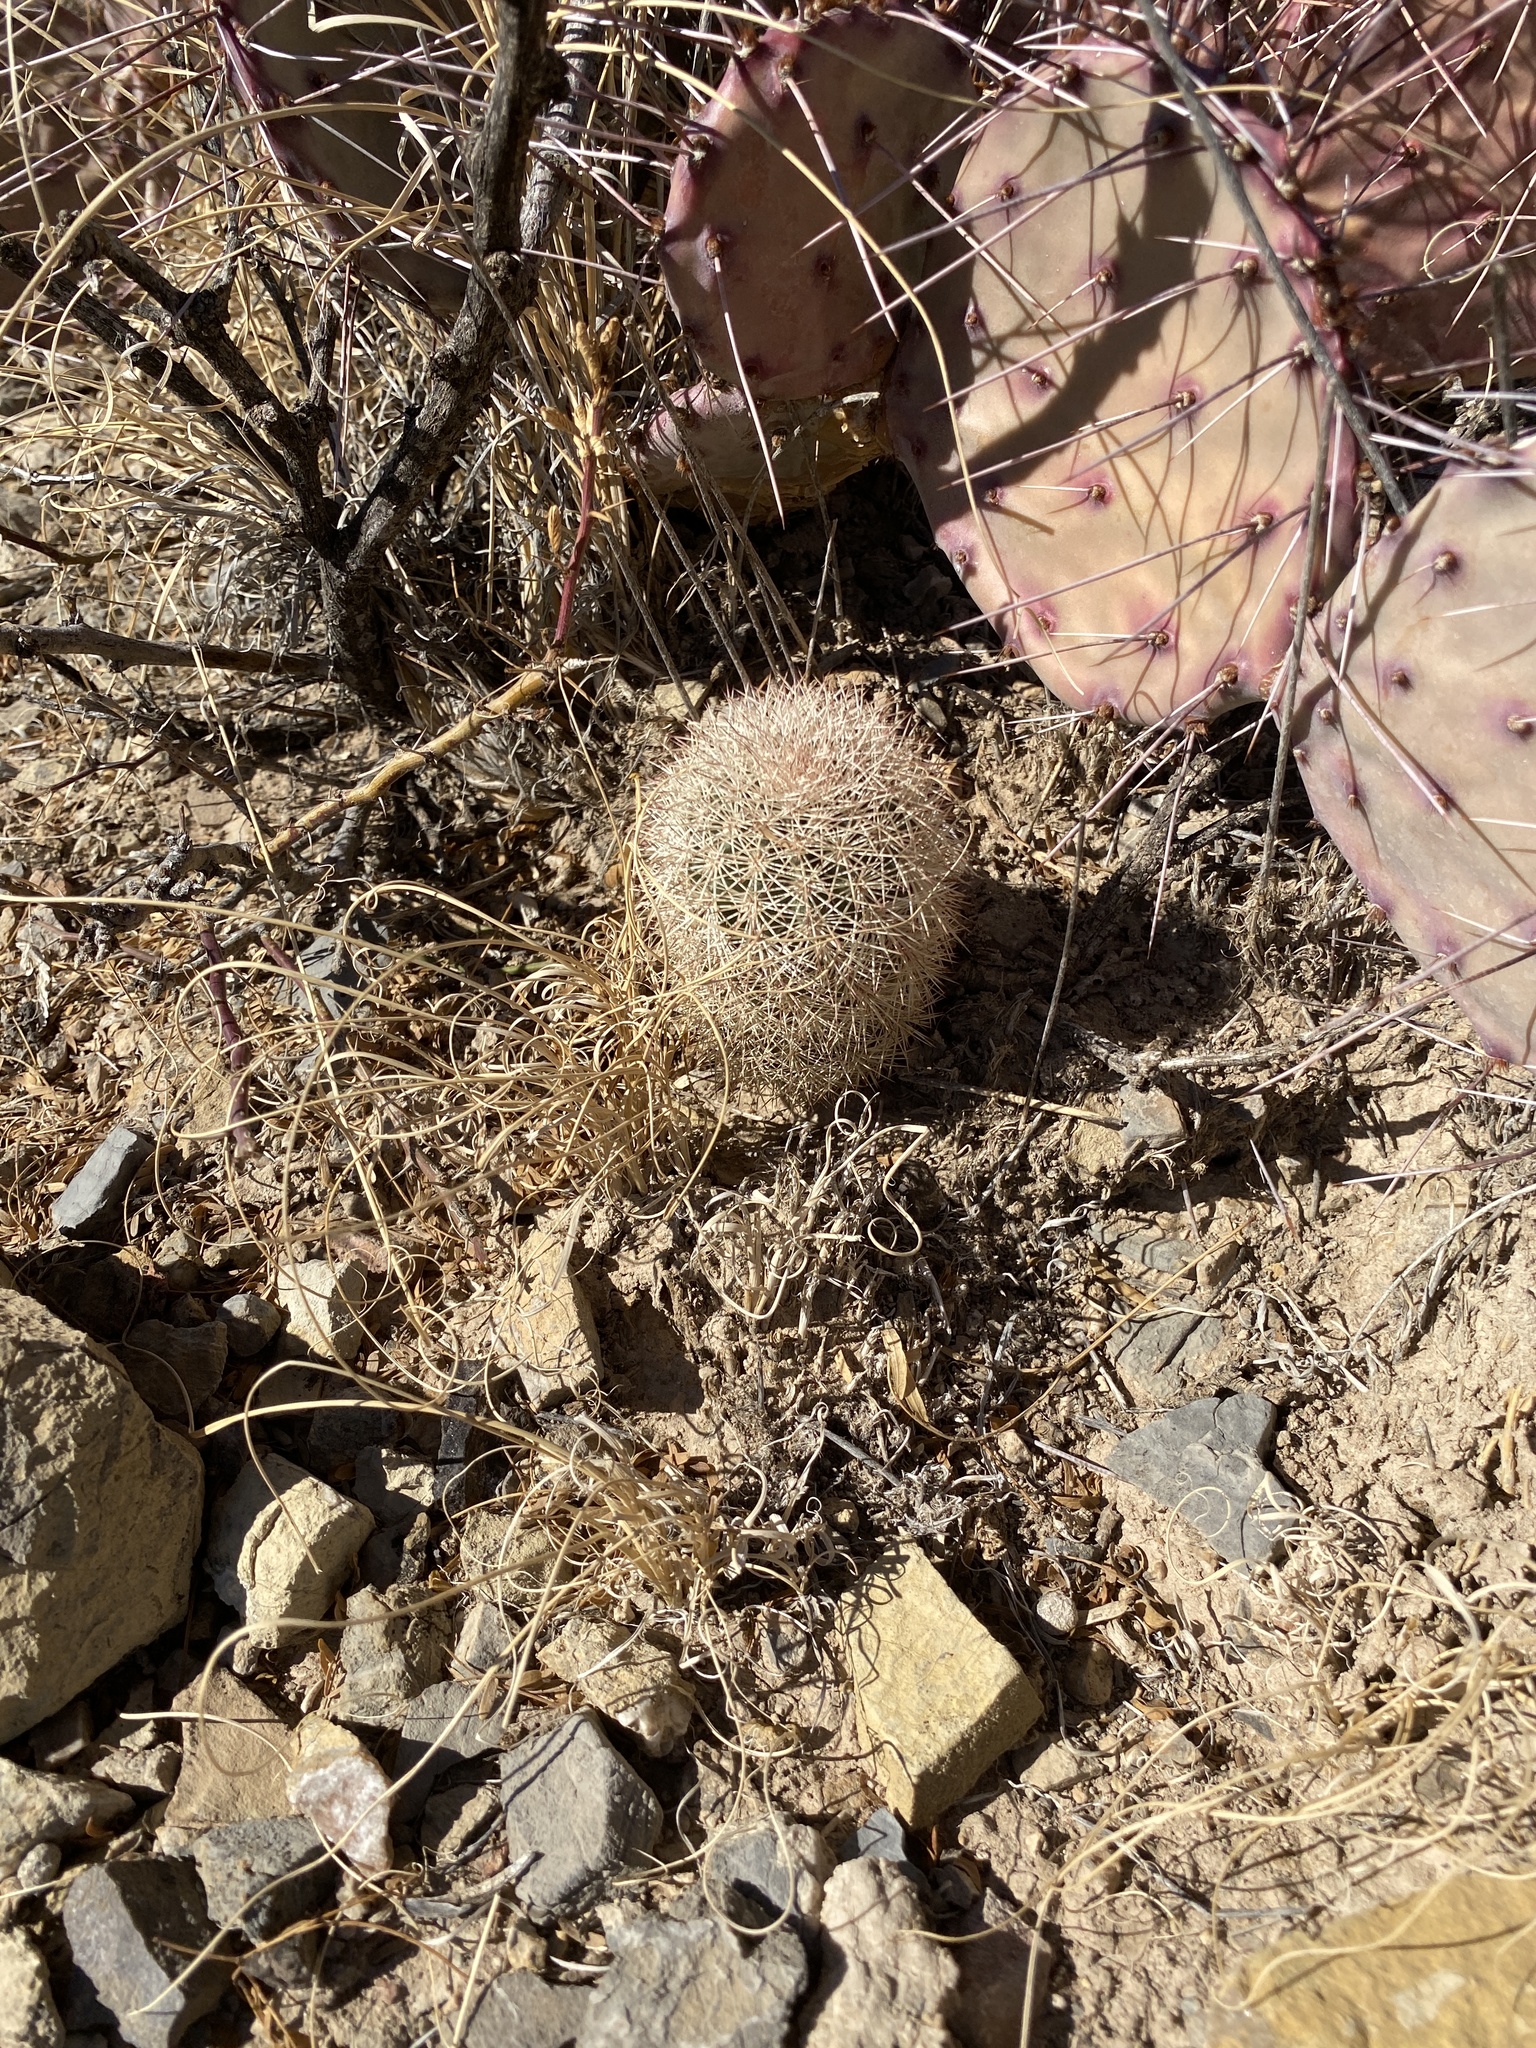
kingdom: Plantae
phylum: Tracheophyta
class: Magnoliopsida
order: Caryophyllales
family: Cactaceae
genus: Echinocereus
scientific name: Echinocereus dasyacanthus
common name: Spiny hedgehog cactus
